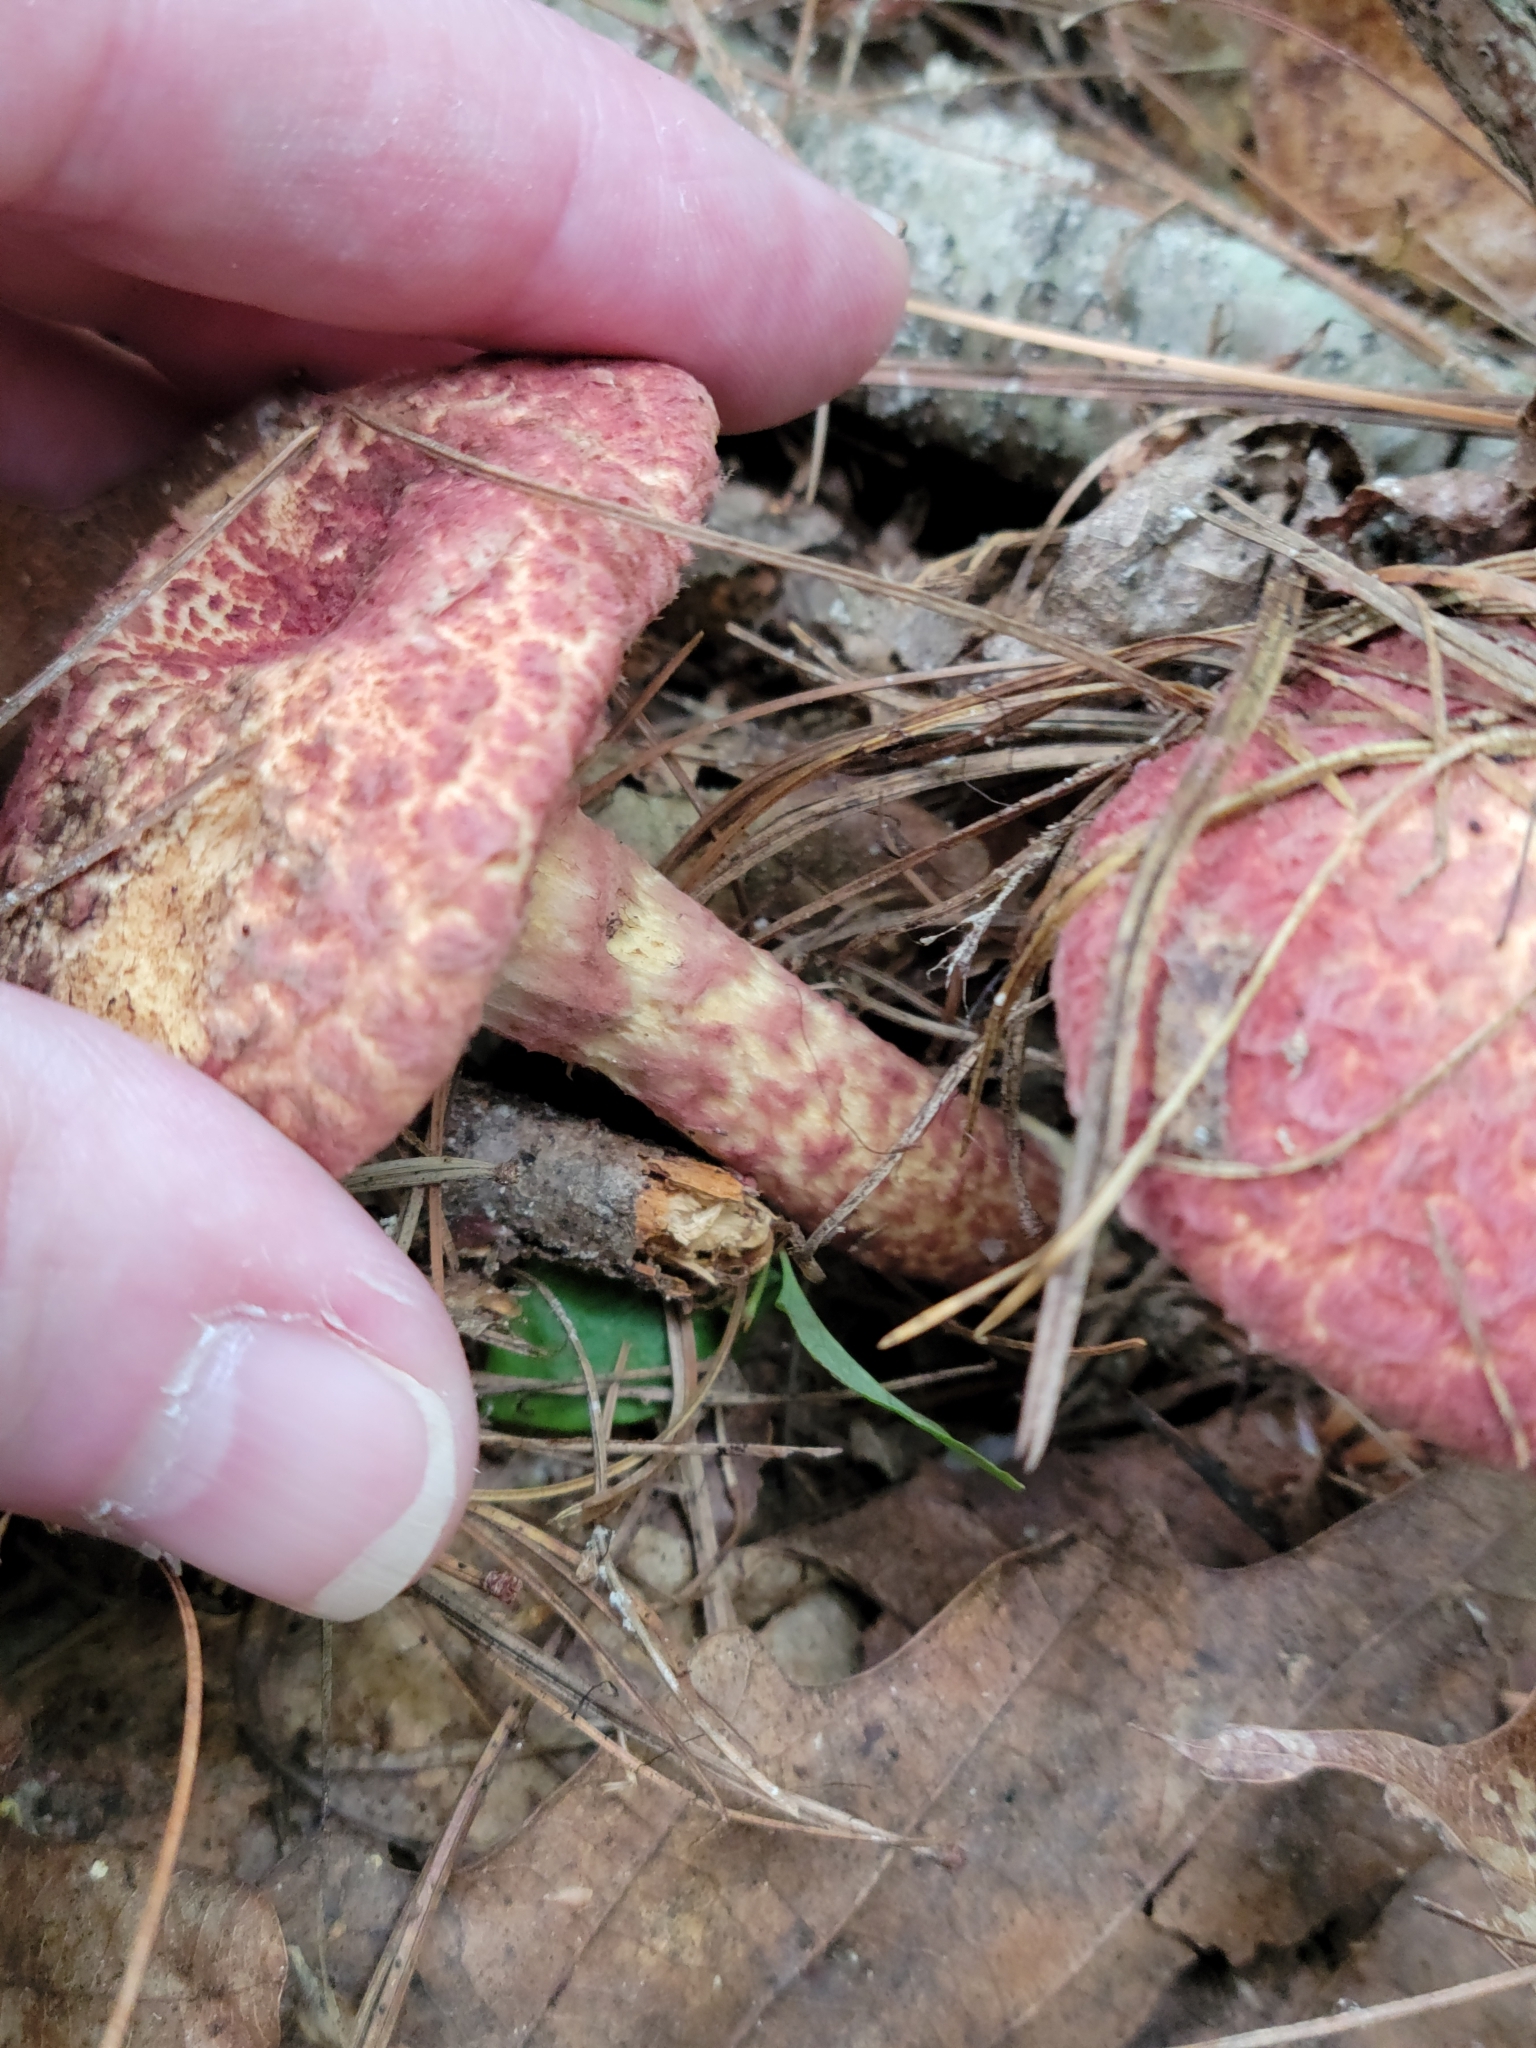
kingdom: Fungi
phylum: Basidiomycota
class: Agaricomycetes
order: Boletales
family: Suillaceae
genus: Suillus
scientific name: Suillus spraguei
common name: Painted suillus
